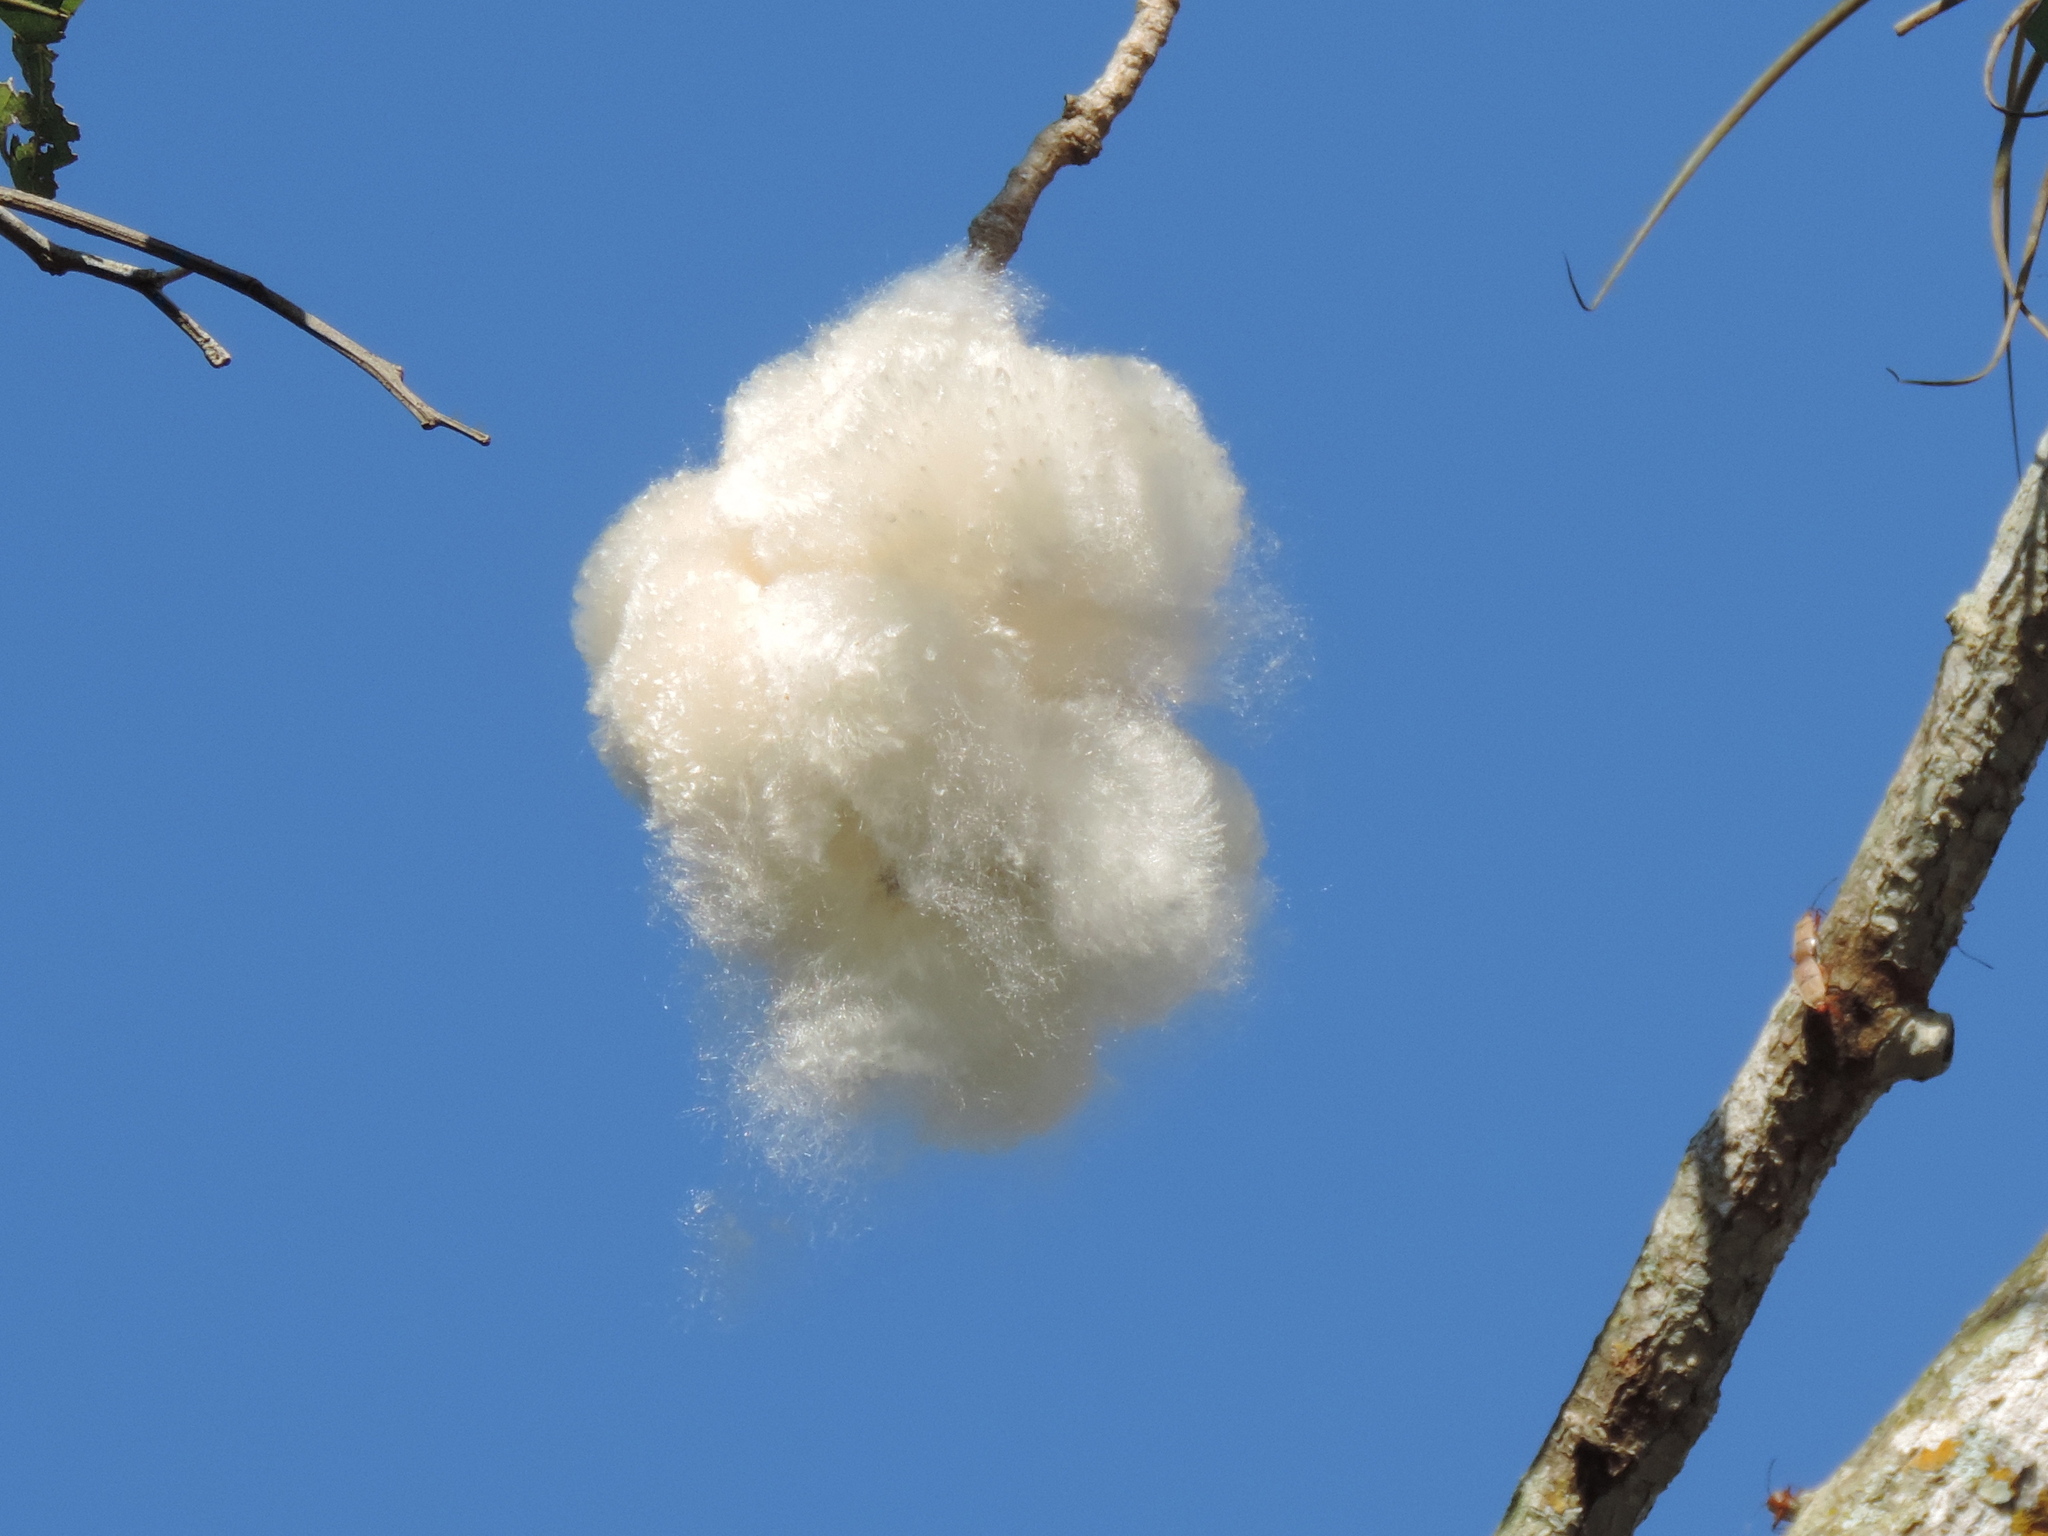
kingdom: Plantae
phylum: Tracheophyta
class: Magnoliopsida
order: Malvales
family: Malvaceae
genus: Ceiba
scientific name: Ceiba aesculifolia
